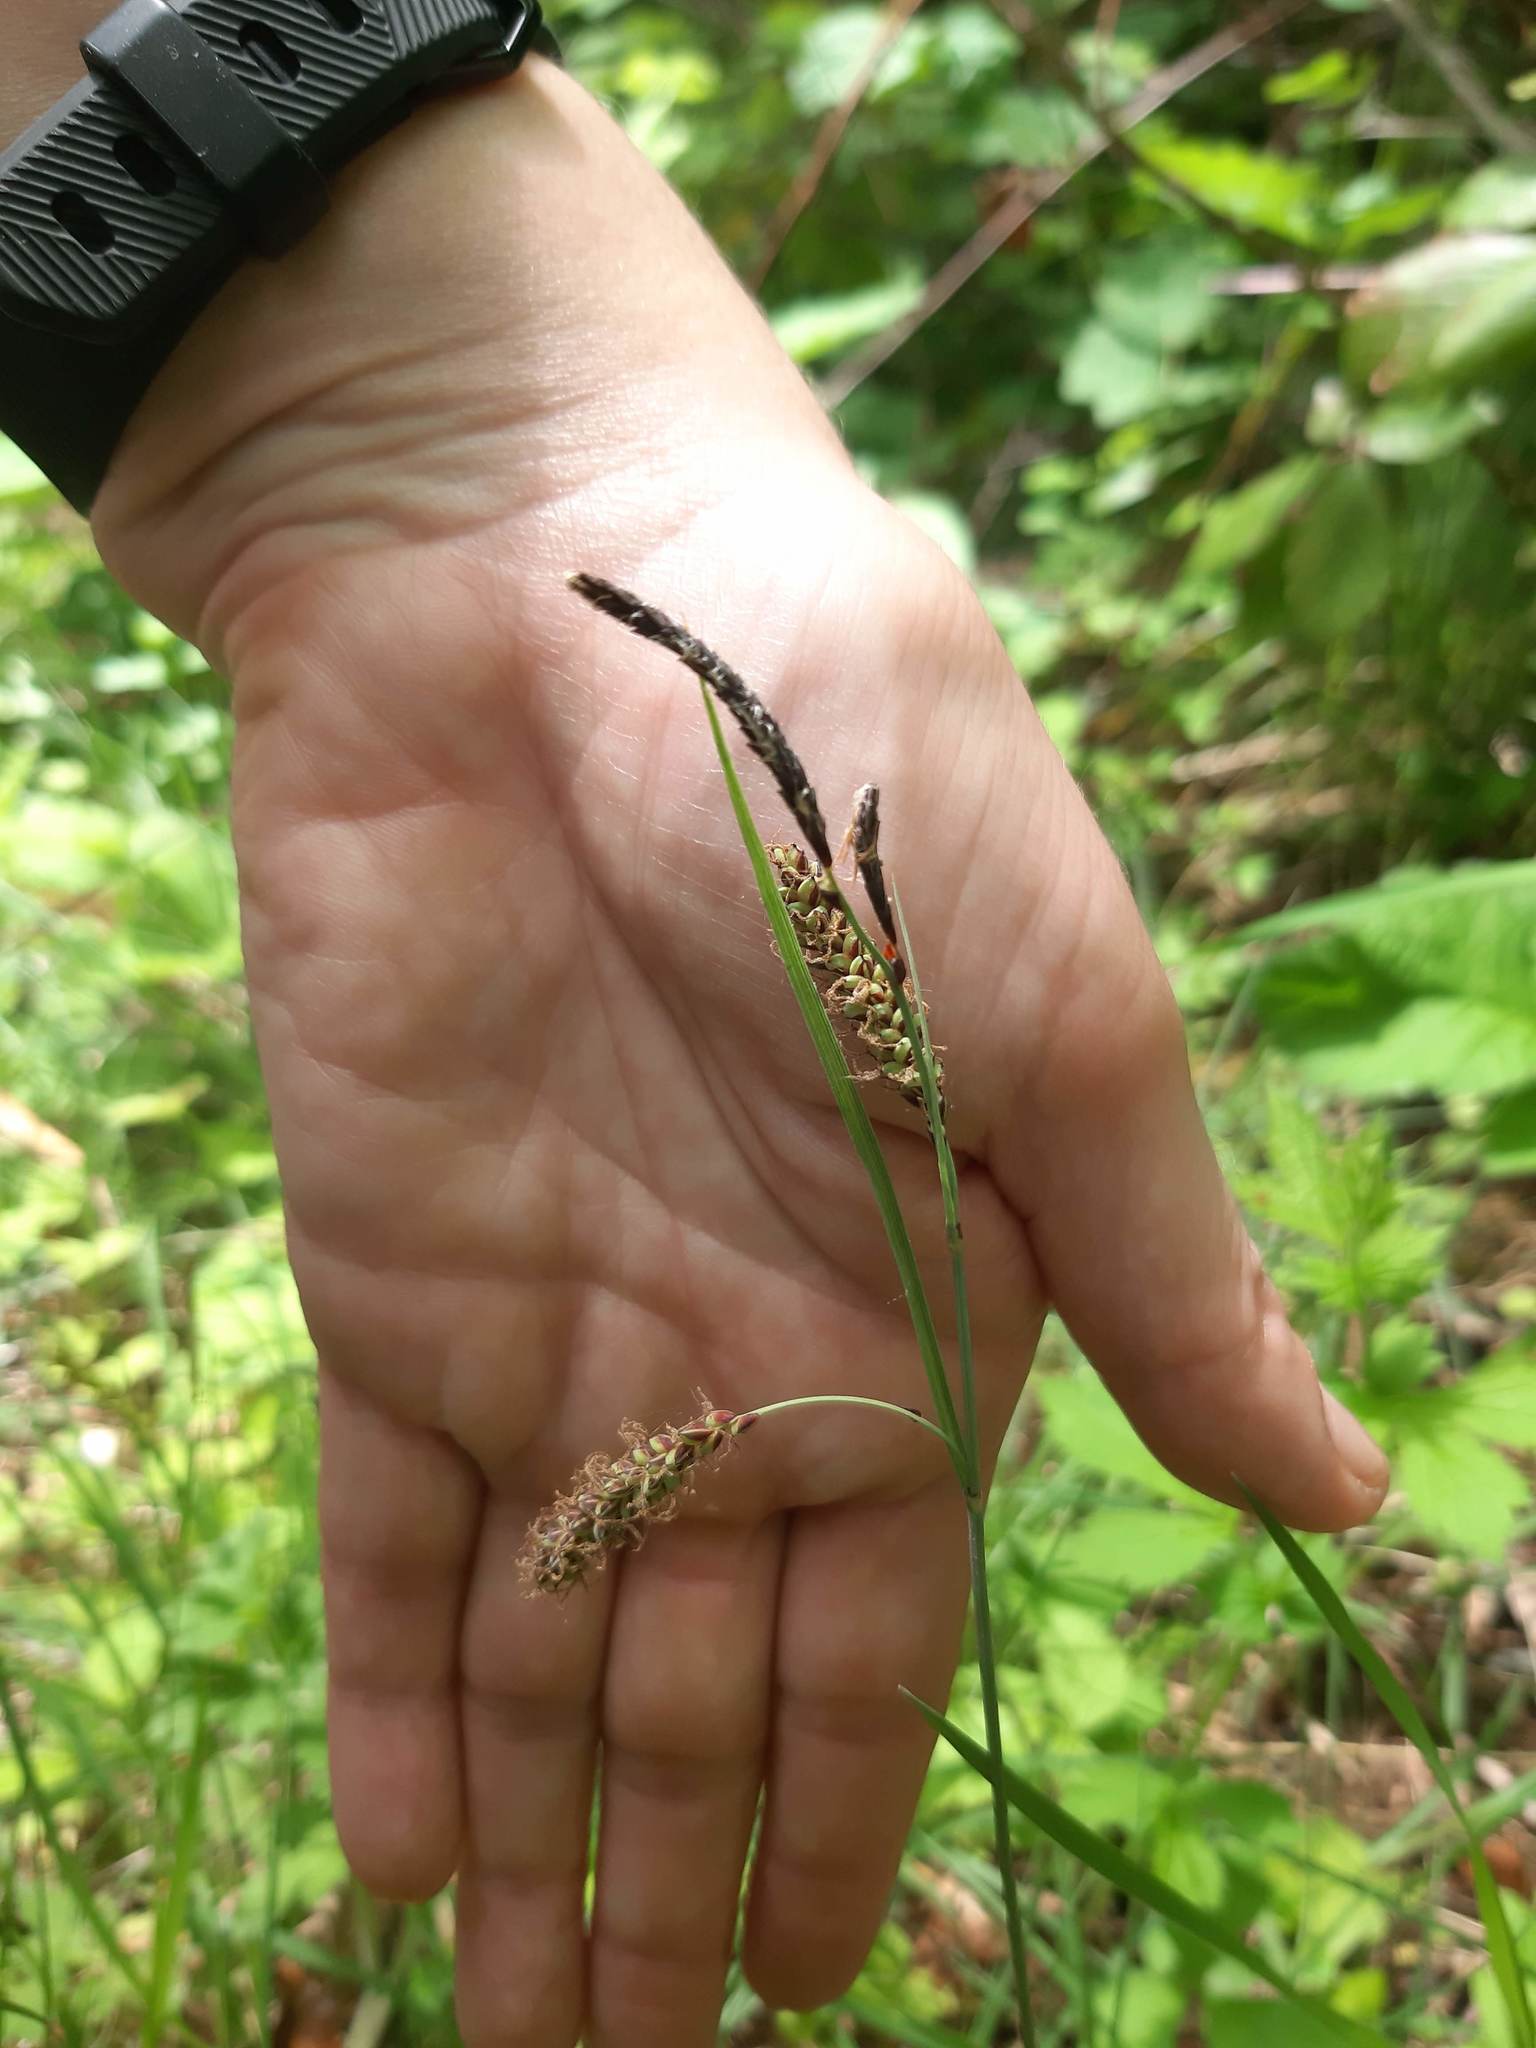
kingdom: Plantae
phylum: Tracheophyta
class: Liliopsida
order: Poales
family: Cyperaceae
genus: Carex
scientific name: Carex flacca
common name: Glaucous sedge
